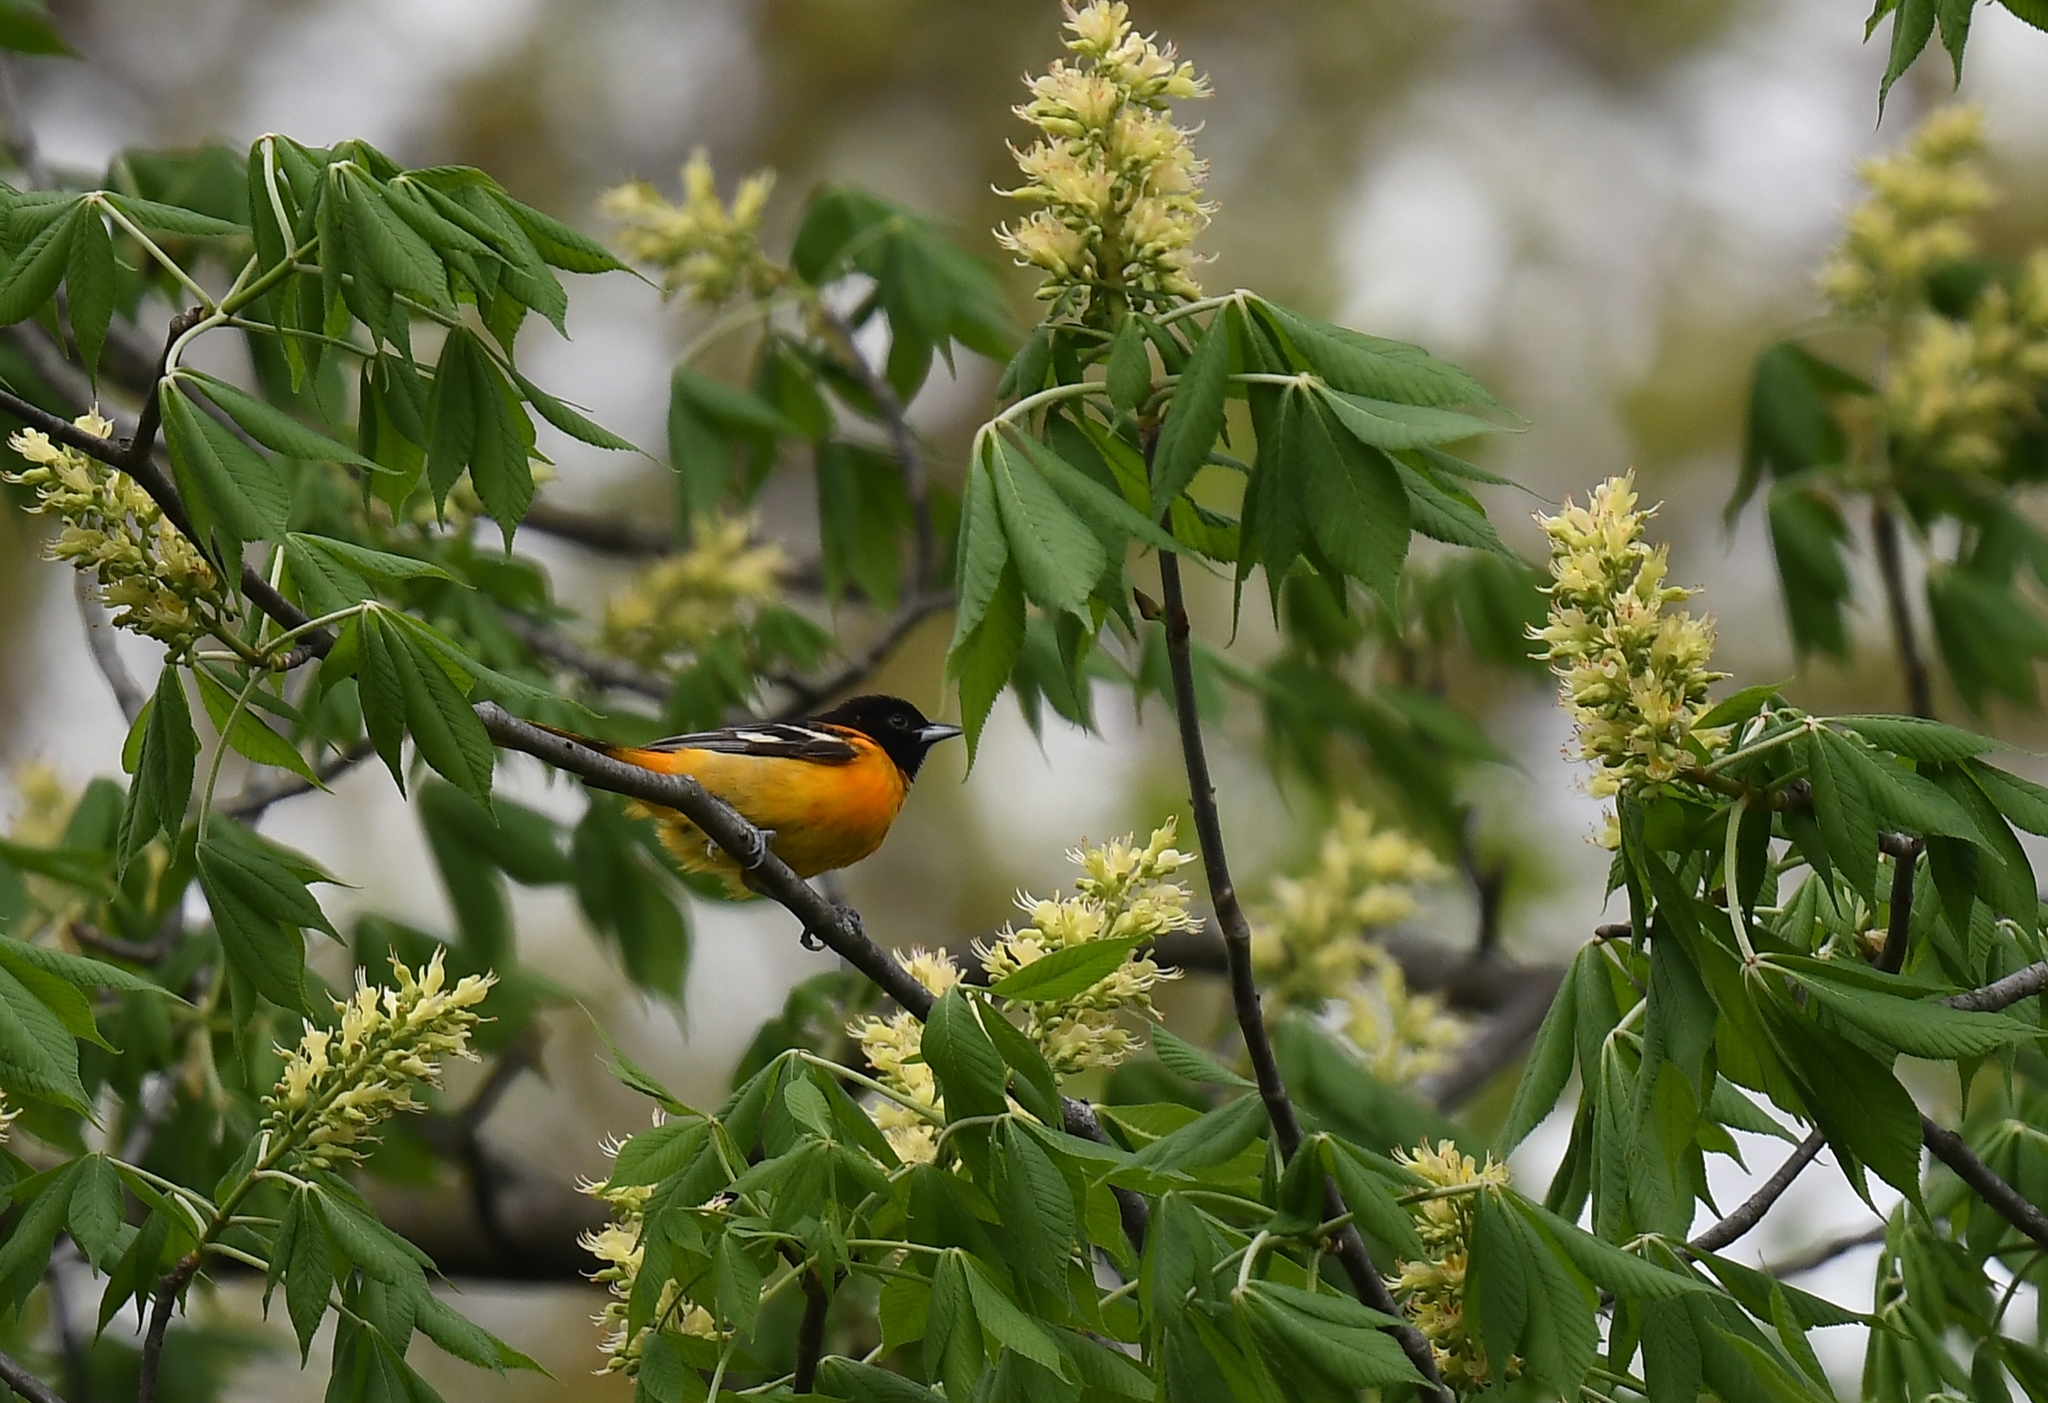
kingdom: Animalia
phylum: Chordata
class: Aves
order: Passeriformes
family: Icteridae
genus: Icterus
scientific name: Icterus galbula
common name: Baltimore oriole
